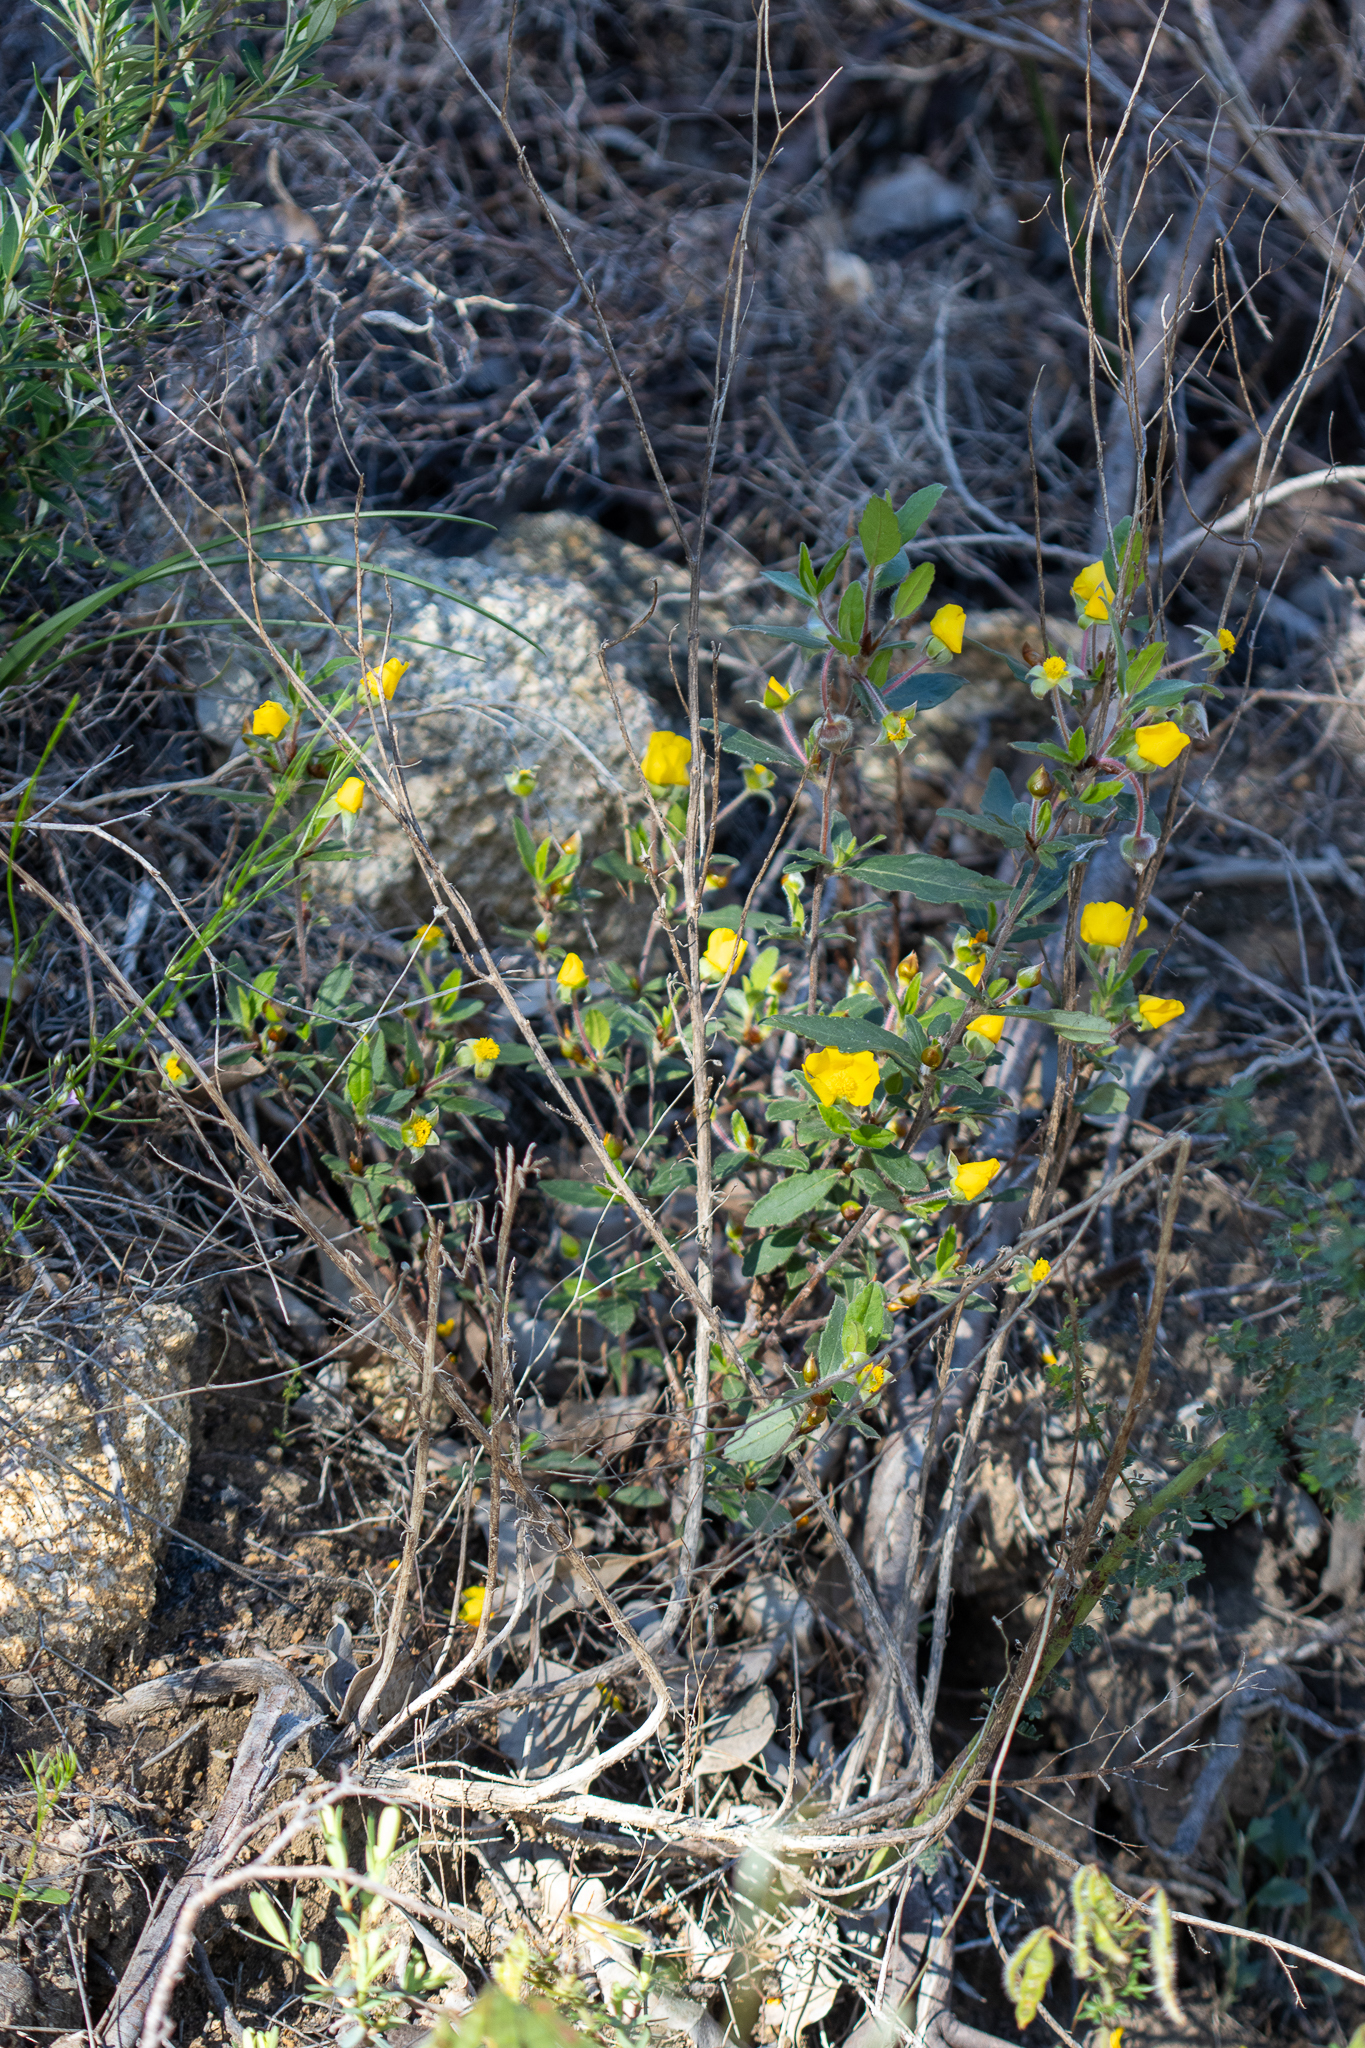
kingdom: Plantae
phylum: Tracheophyta
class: Magnoliopsida
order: Dilleniales
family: Dilleniaceae
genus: Hibbertia
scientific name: Hibbertia acrotoma
